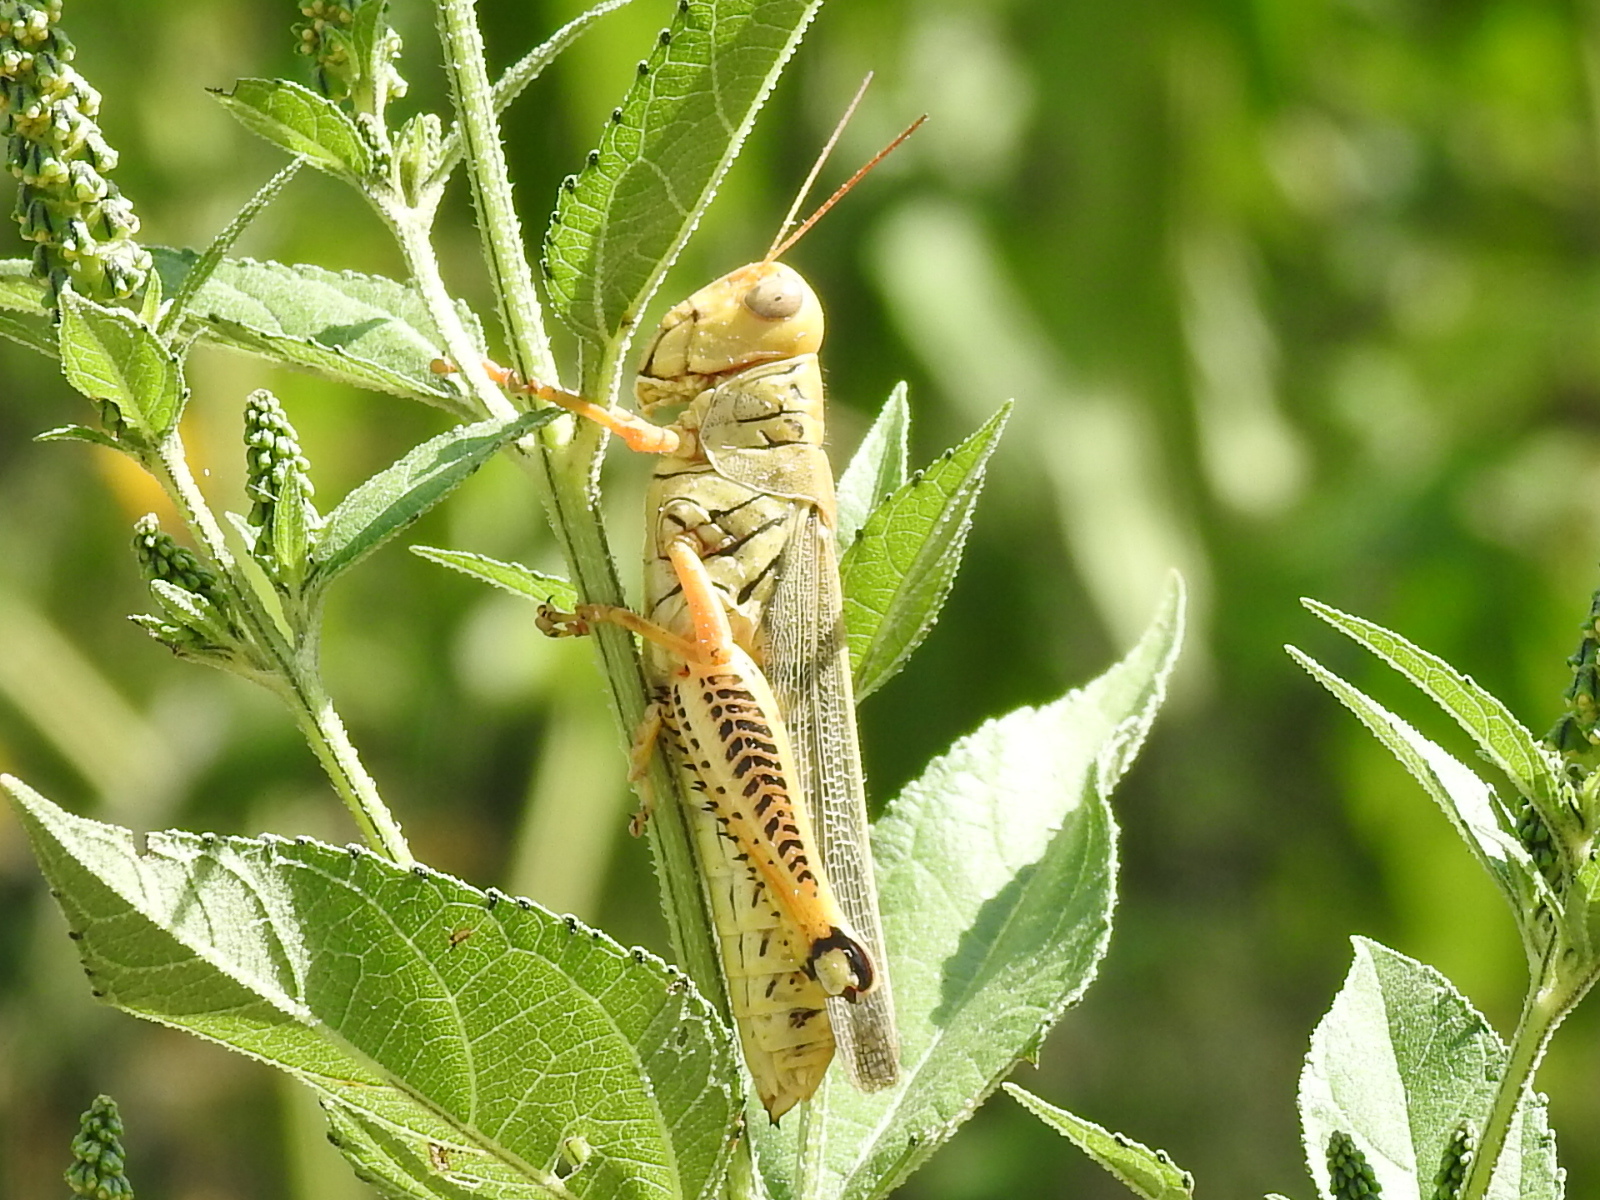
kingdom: Animalia
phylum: Arthropoda
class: Insecta
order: Orthoptera
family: Acrididae
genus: Melanoplus
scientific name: Melanoplus differentialis
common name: Differential grasshopper
